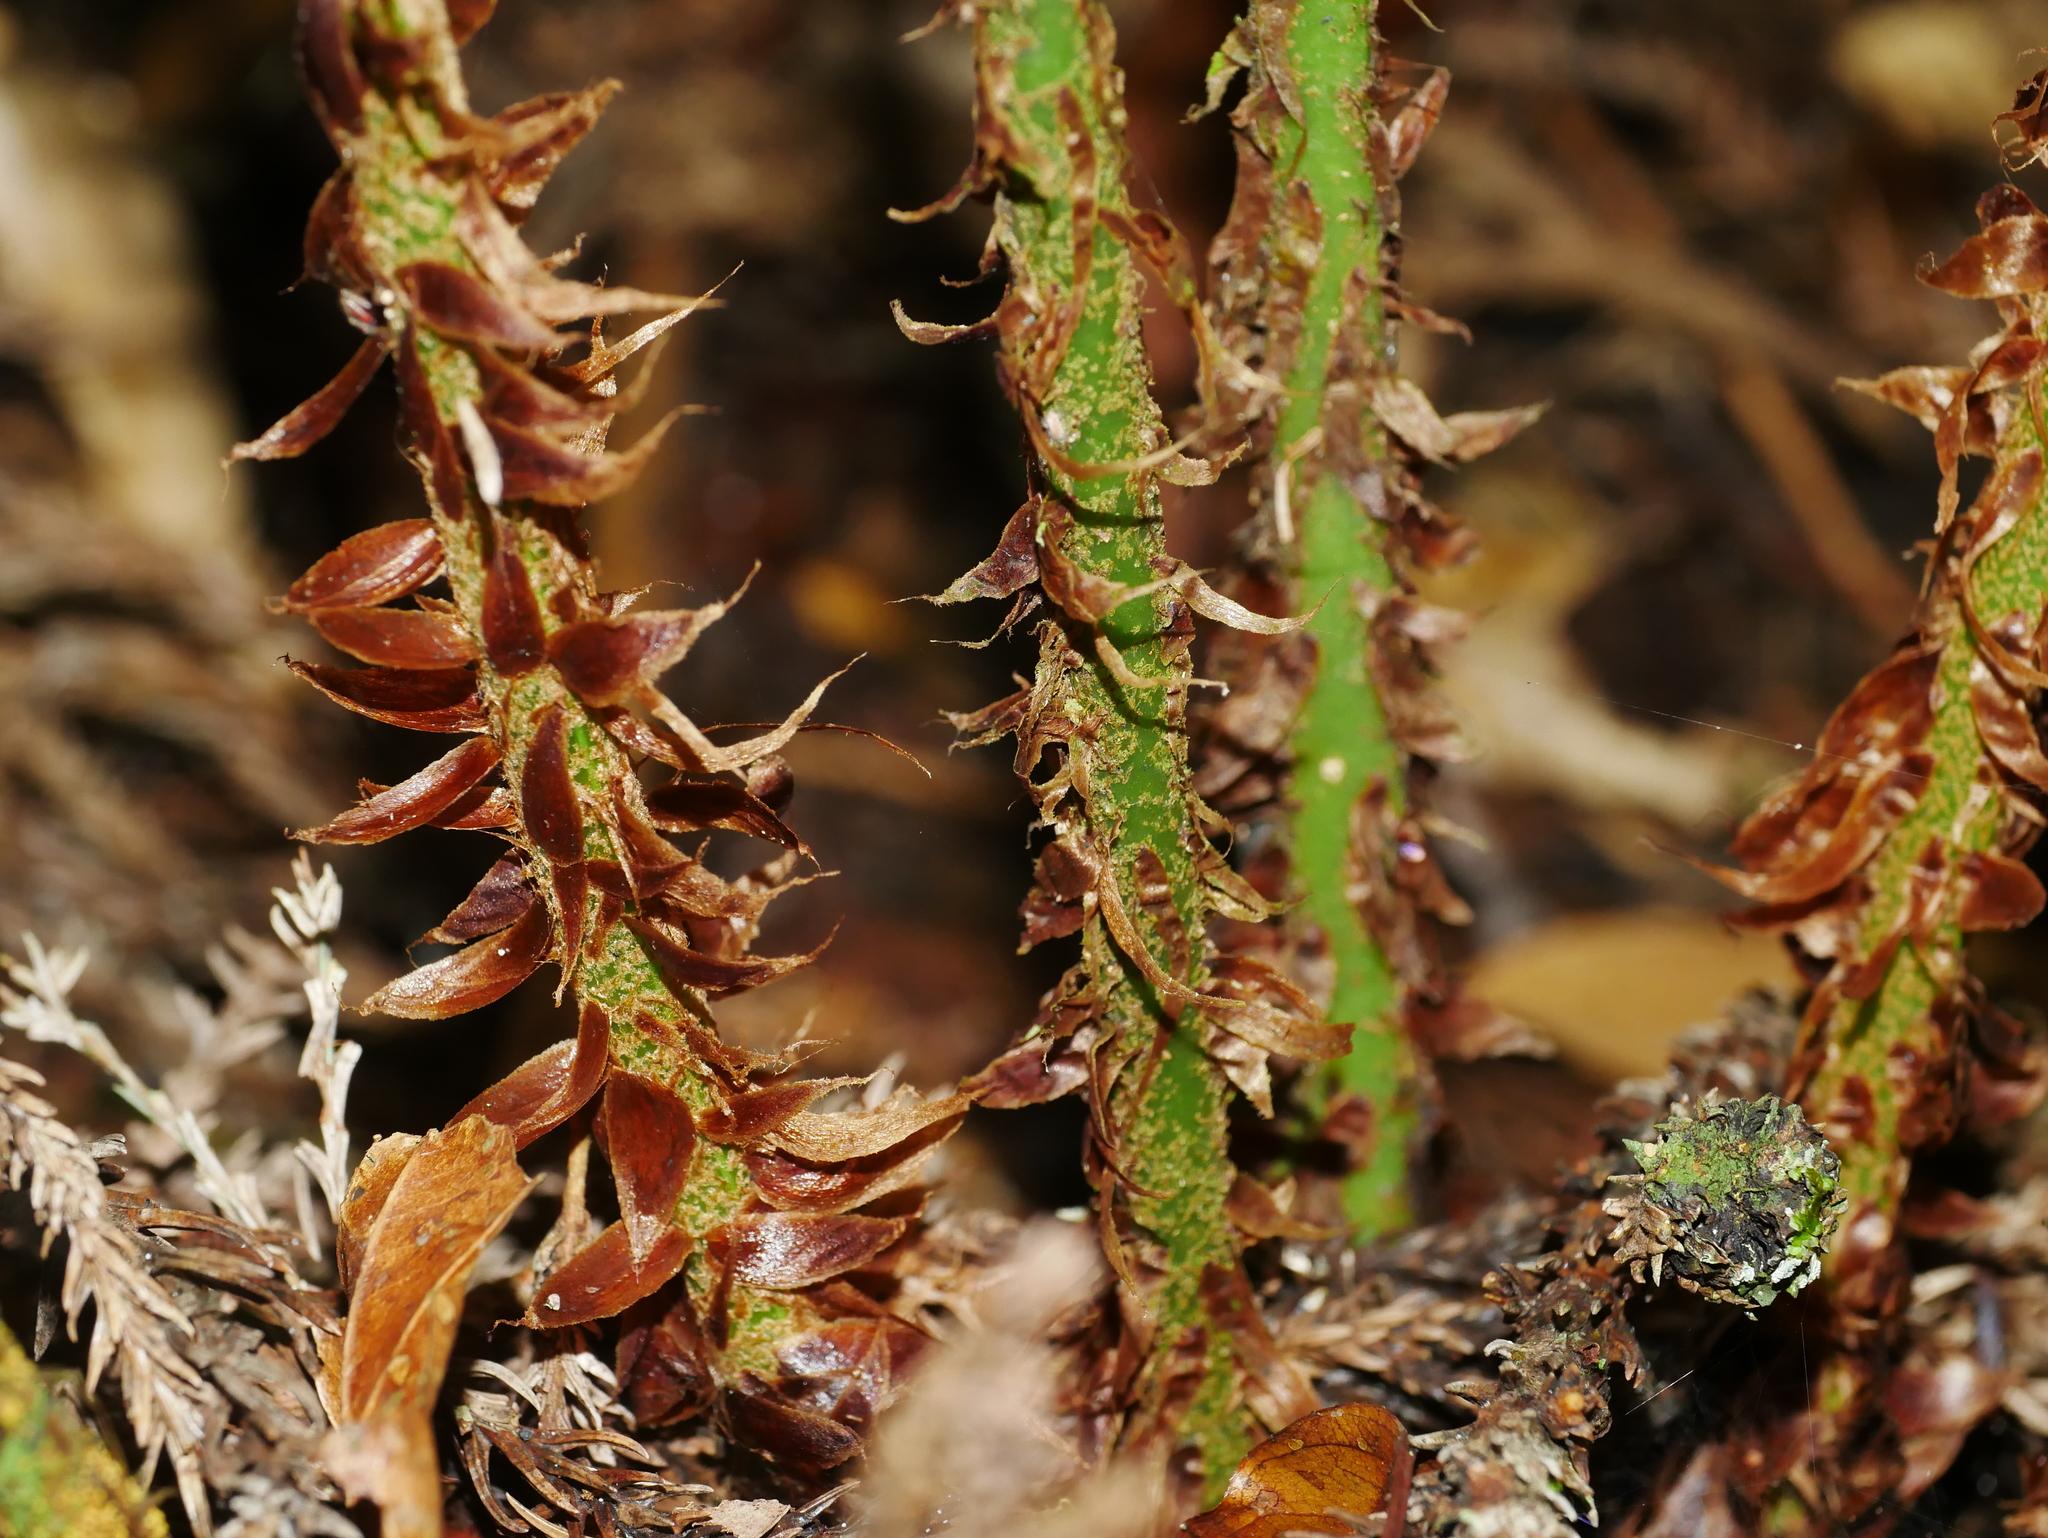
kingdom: Plantae
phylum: Tracheophyta
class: Polypodiopsida
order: Polypodiales
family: Dryopteridaceae
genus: Polystichum
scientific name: Polystichum scariosum
